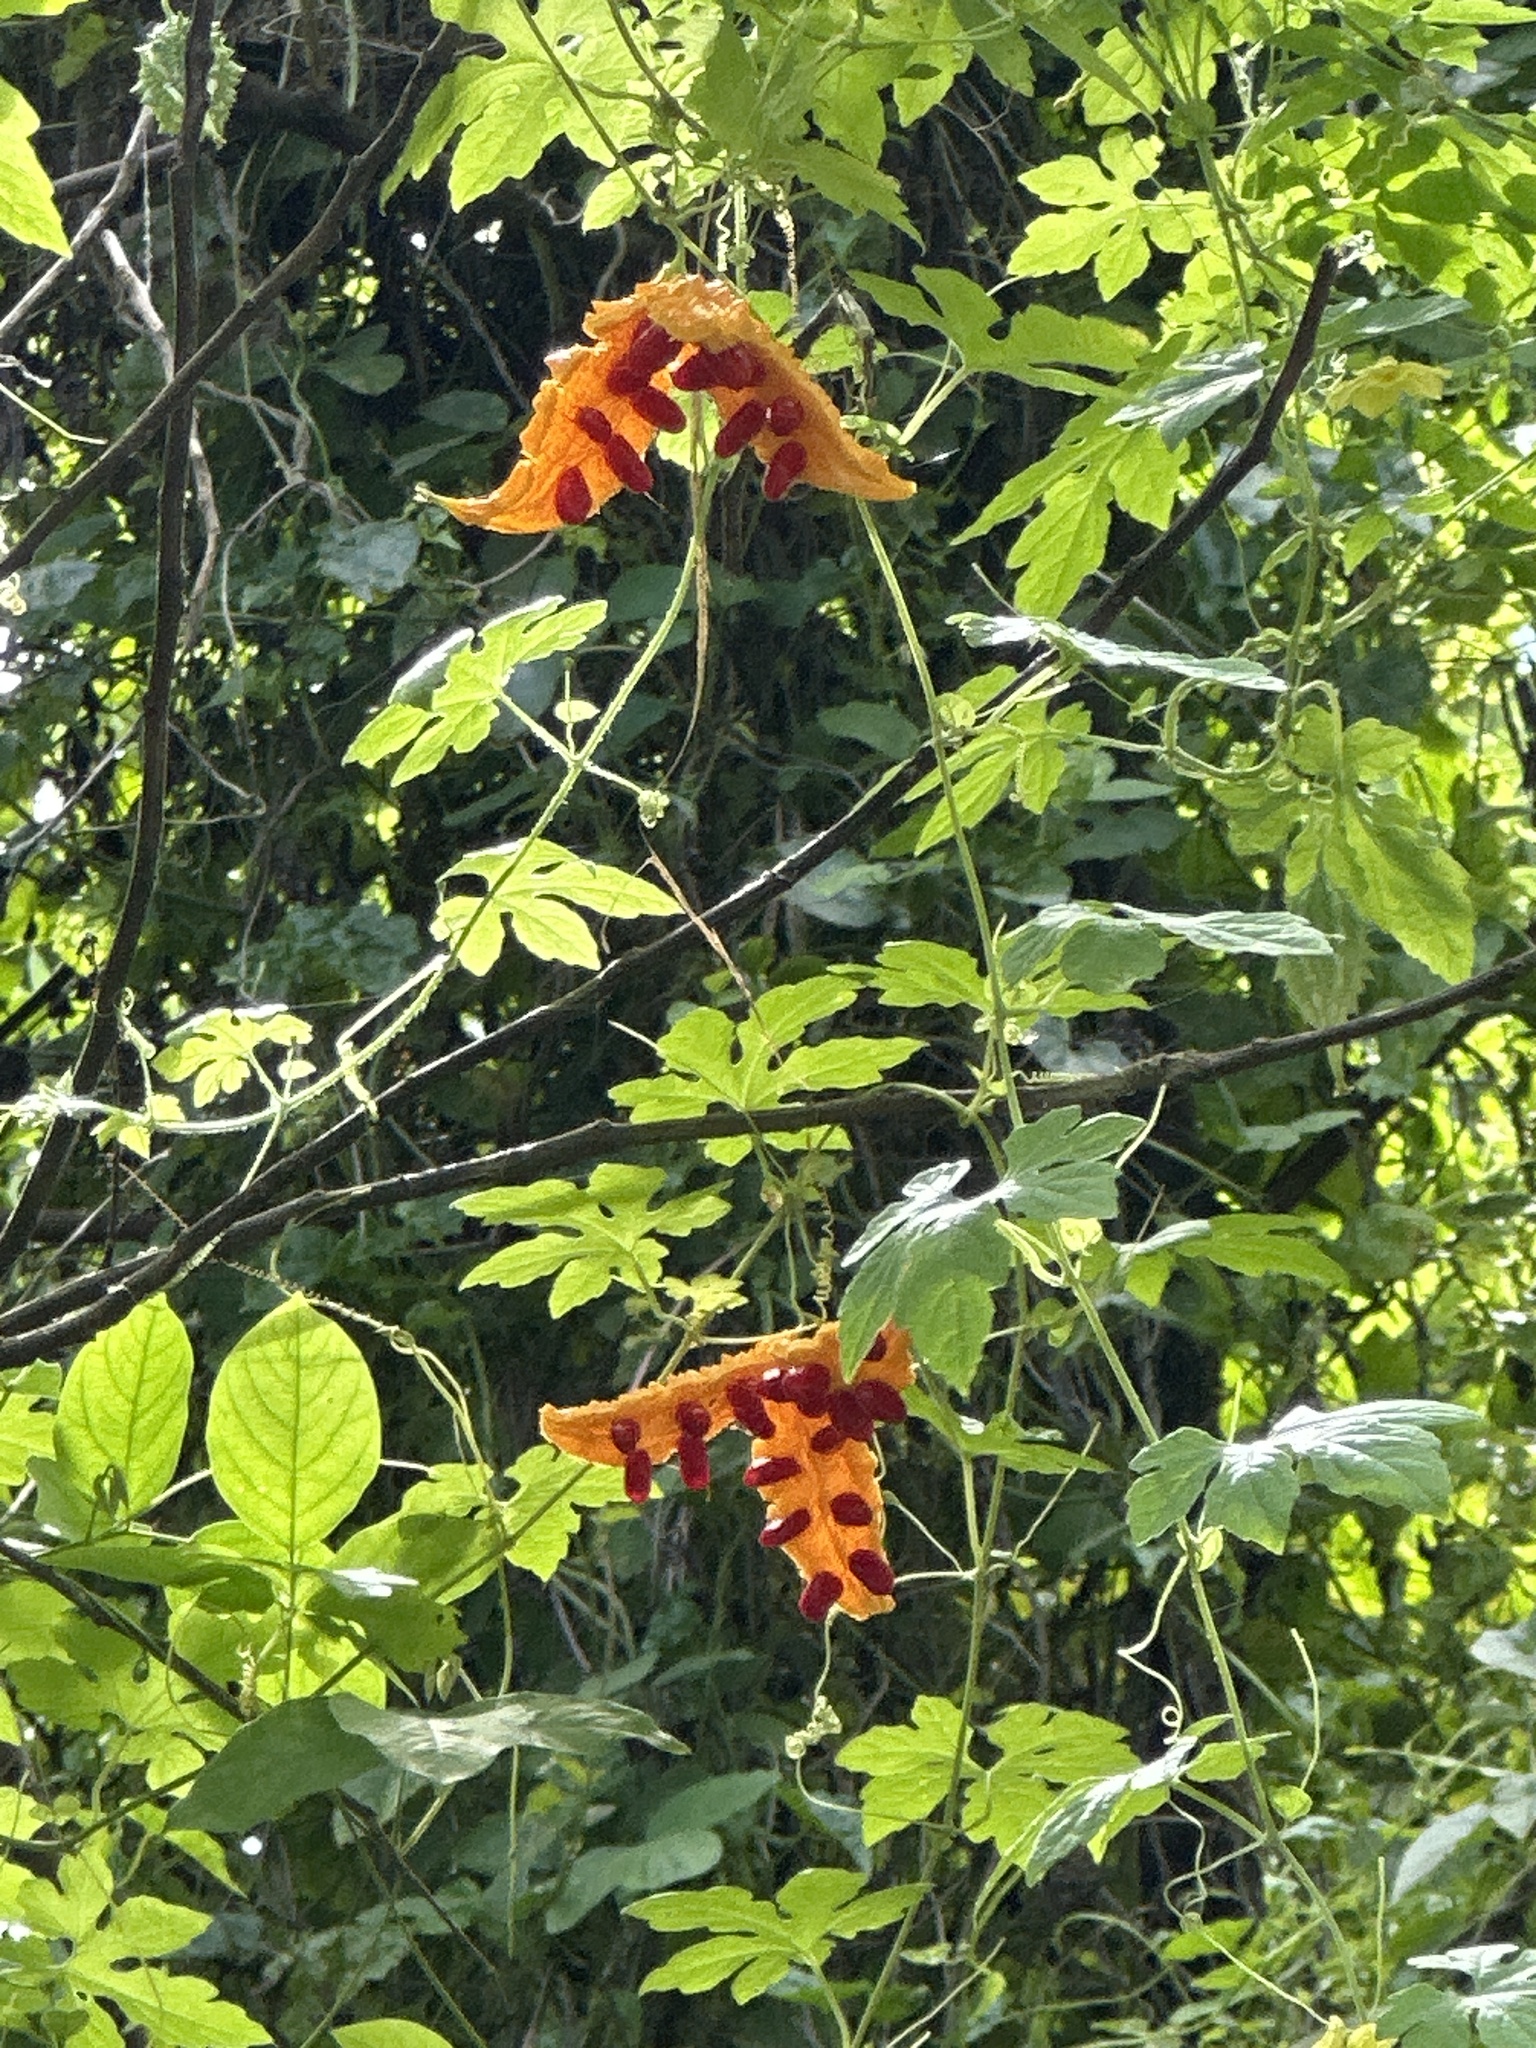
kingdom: Plantae
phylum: Tracheophyta
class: Magnoliopsida
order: Cucurbitales
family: Cucurbitaceae
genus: Momordica
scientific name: Momordica charantia
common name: Balsampear
